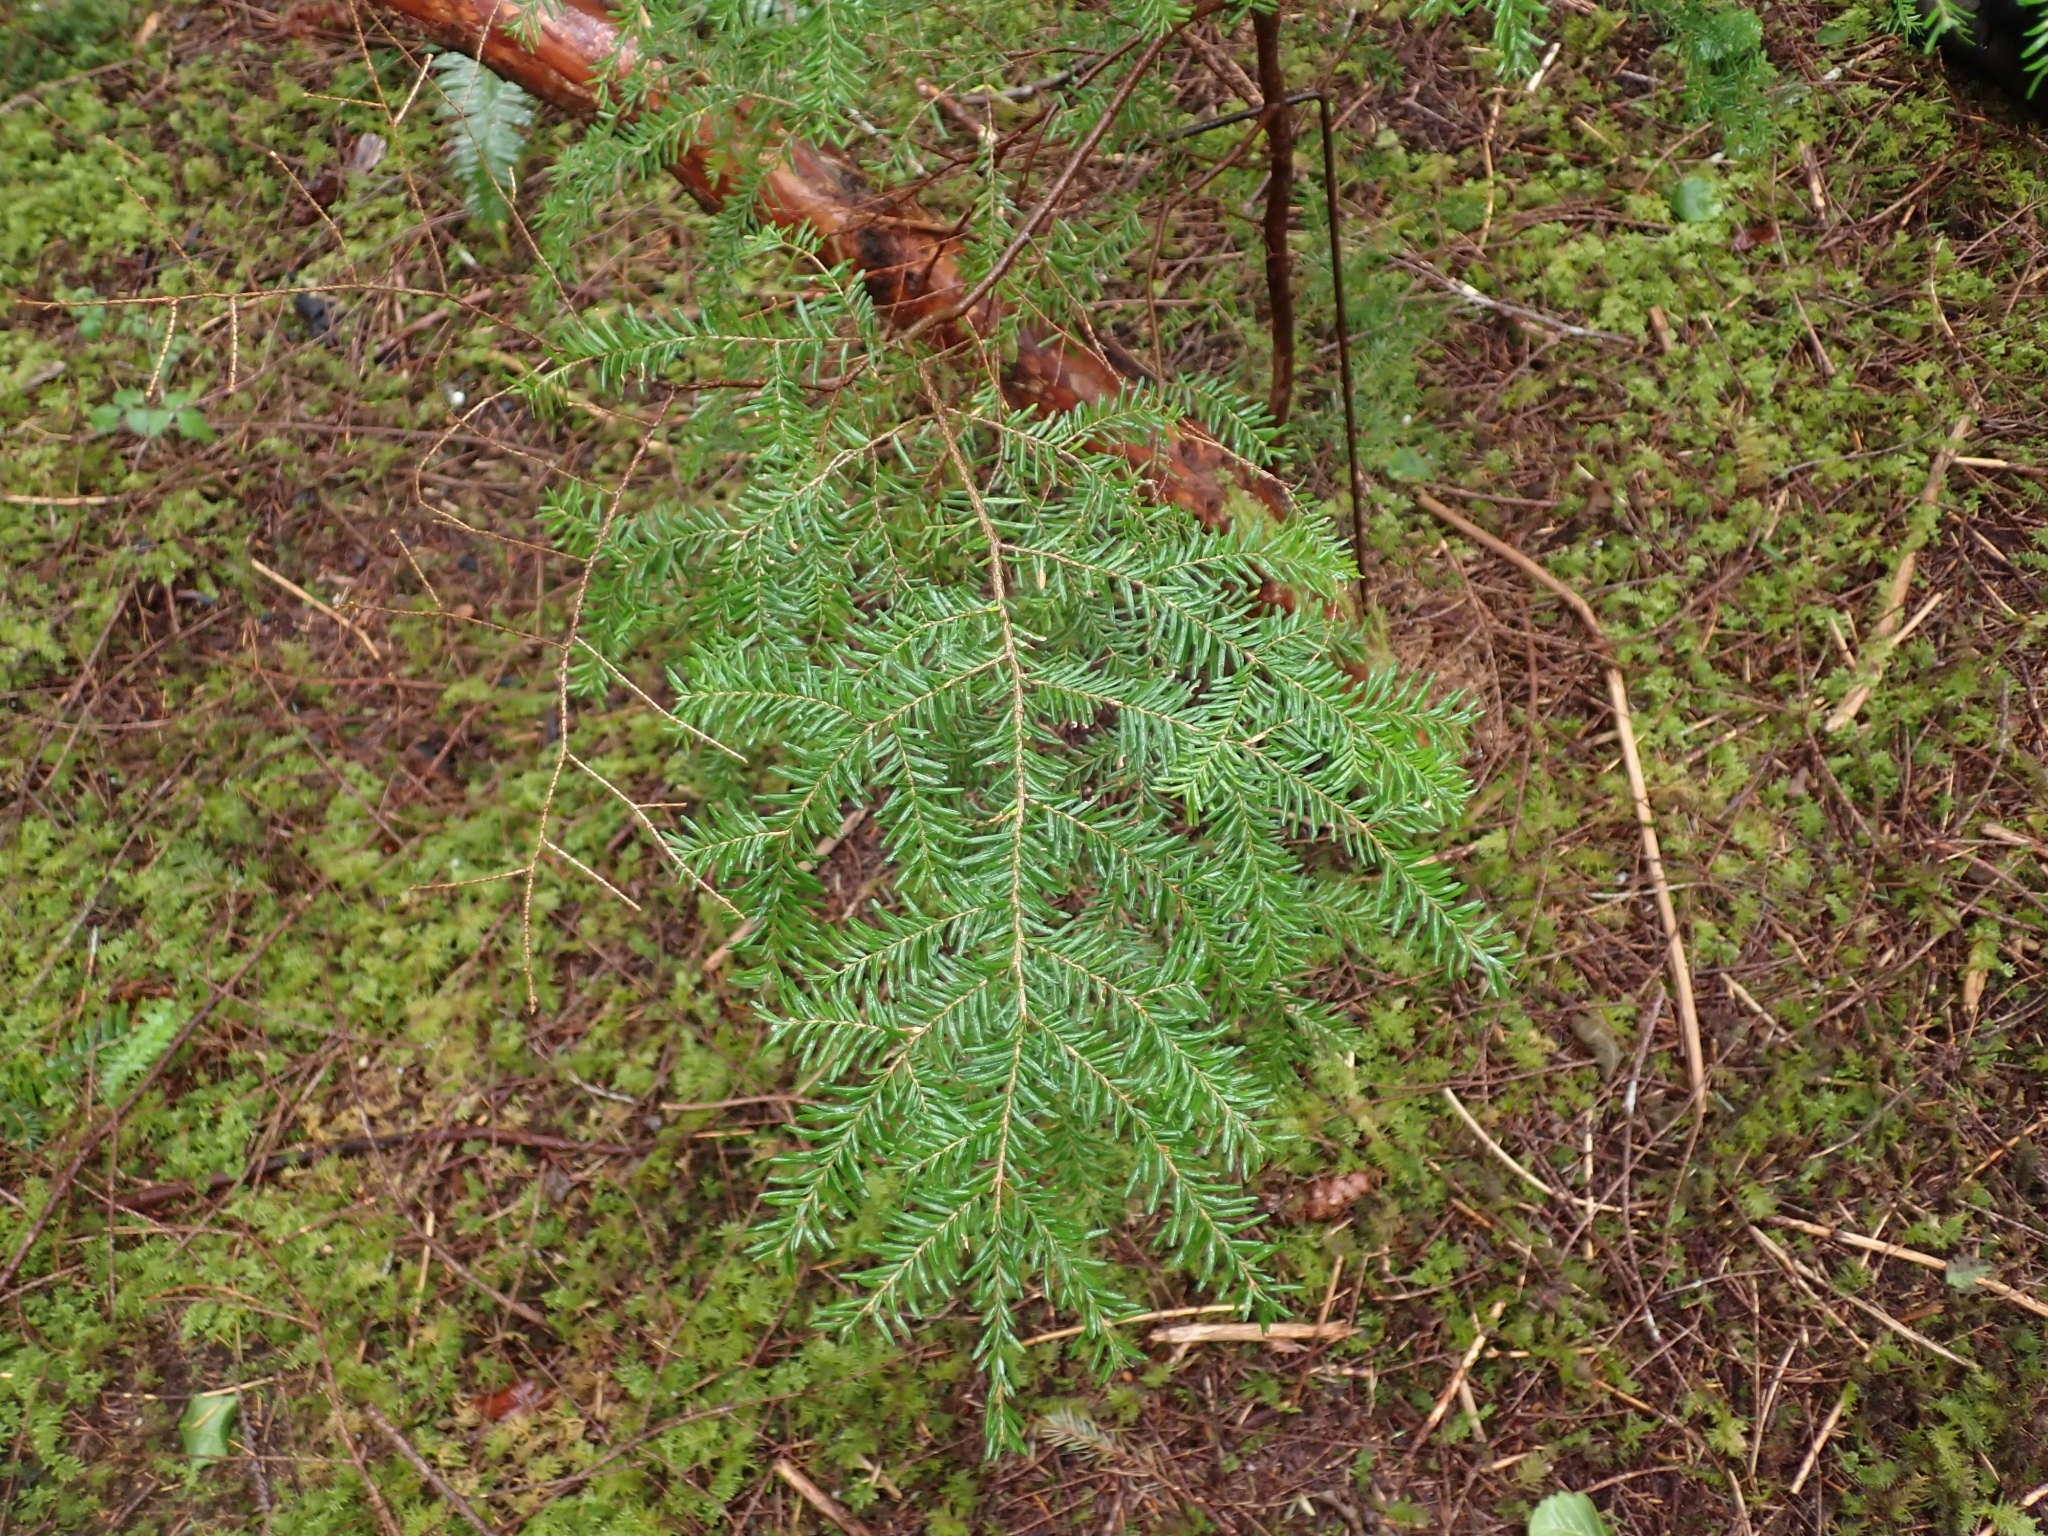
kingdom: Plantae
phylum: Tracheophyta
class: Pinopsida
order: Pinales
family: Pinaceae
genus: Tsuga
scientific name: Tsuga heterophylla
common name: Western hemlock
